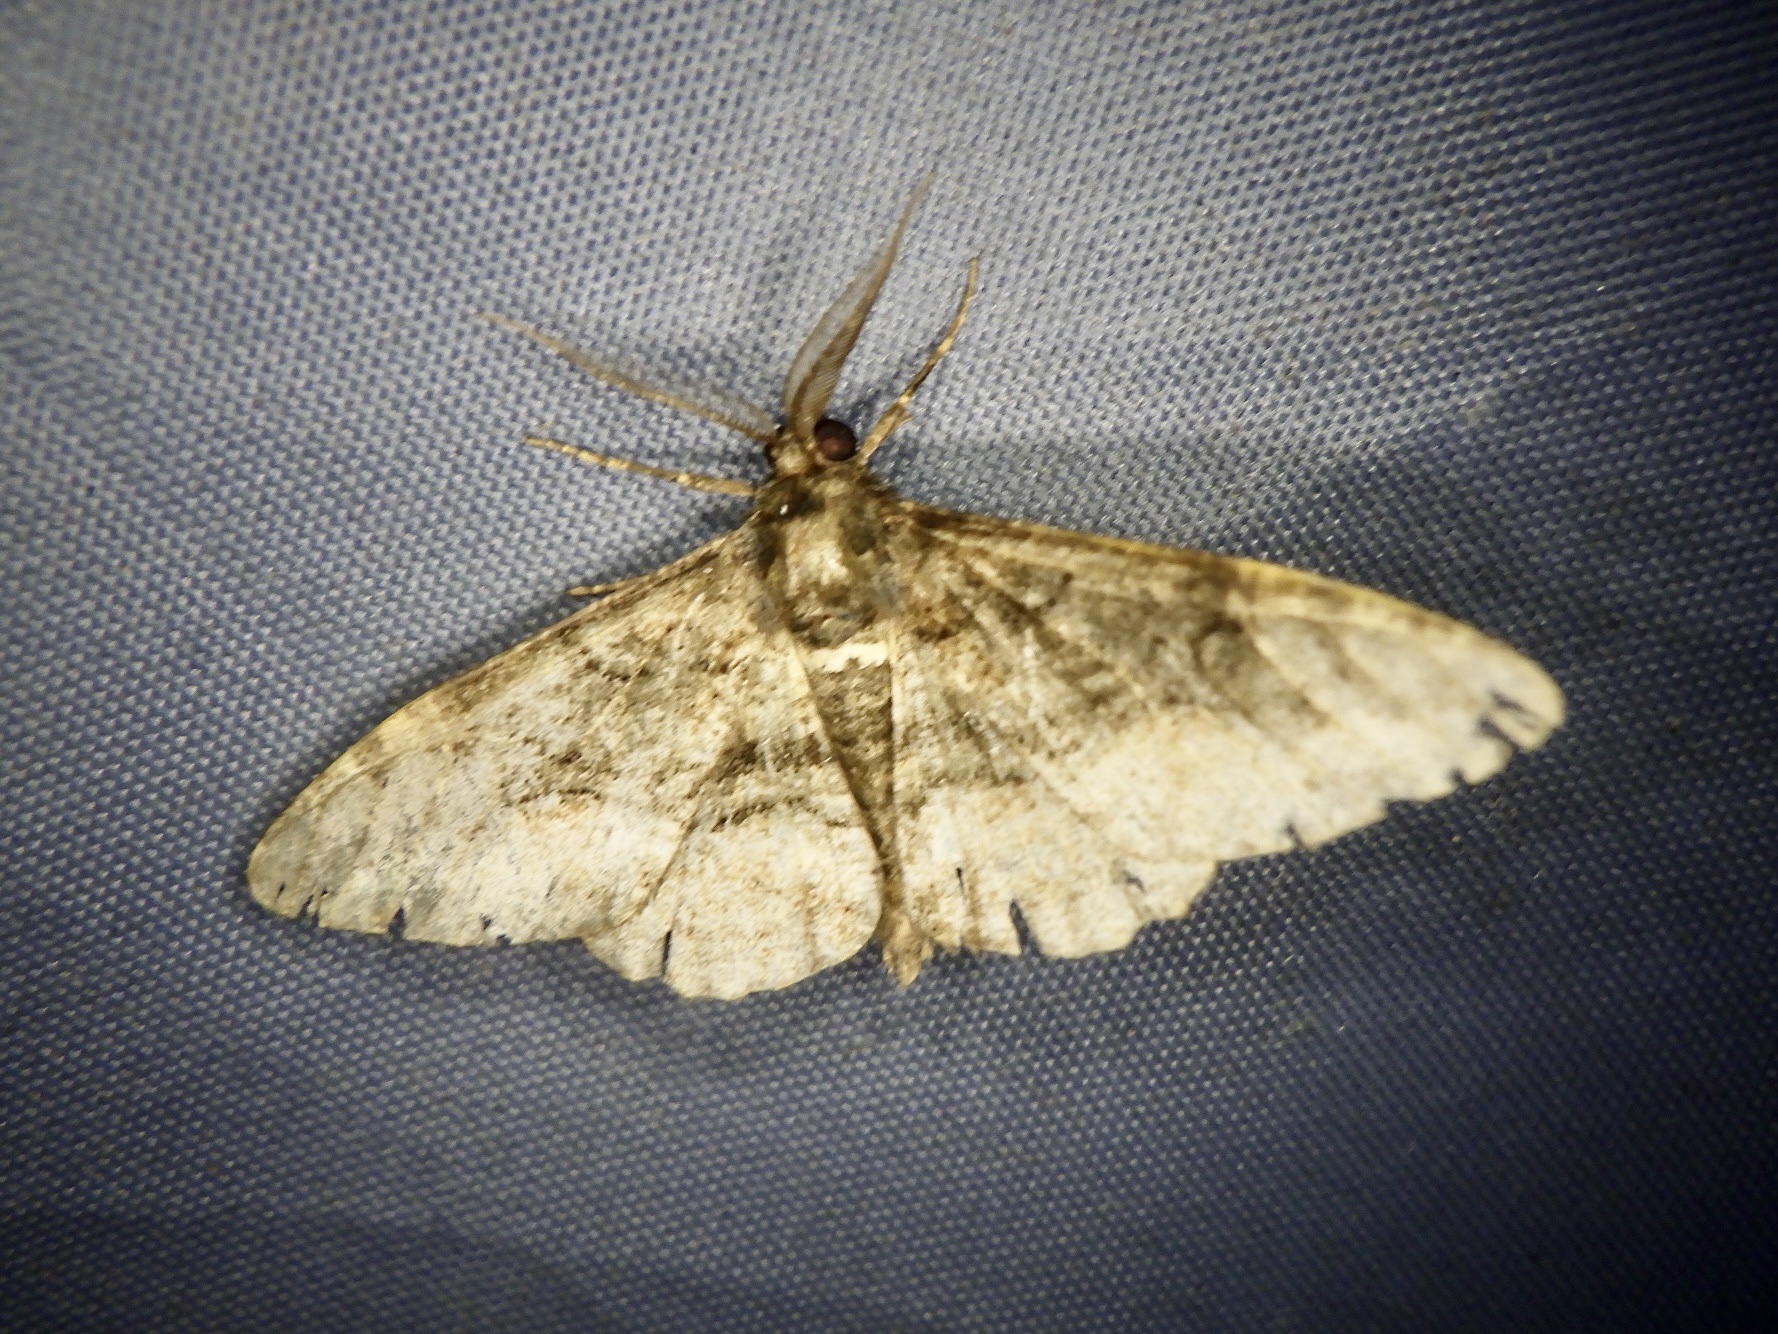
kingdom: Animalia
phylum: Arthropoda
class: Insecta
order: Lepidoptera
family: Geometridae
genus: Jankowskia
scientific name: Jankowskia fuscaria
